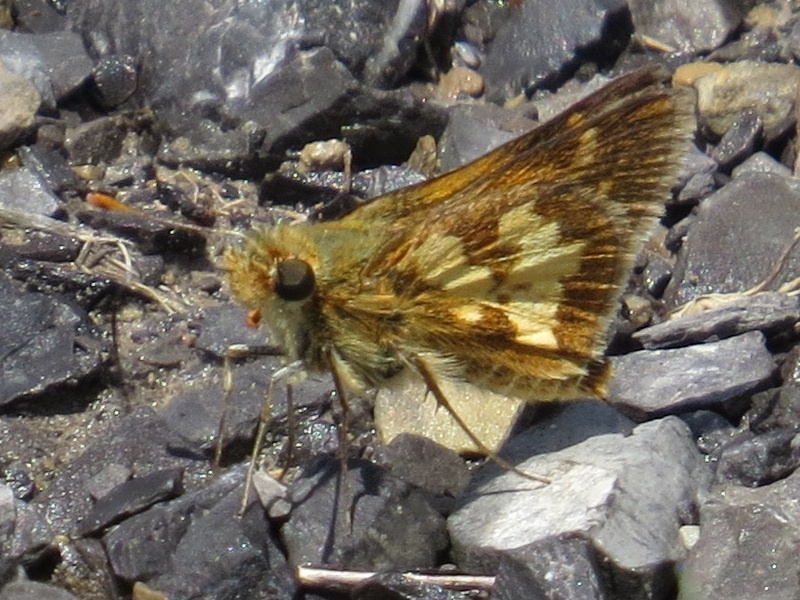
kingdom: Animalia
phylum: Arthropoda
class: Insecta
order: Lepidoptera
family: Hesperiidae
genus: Polites
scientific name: Polites coras
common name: Peck's skipper
